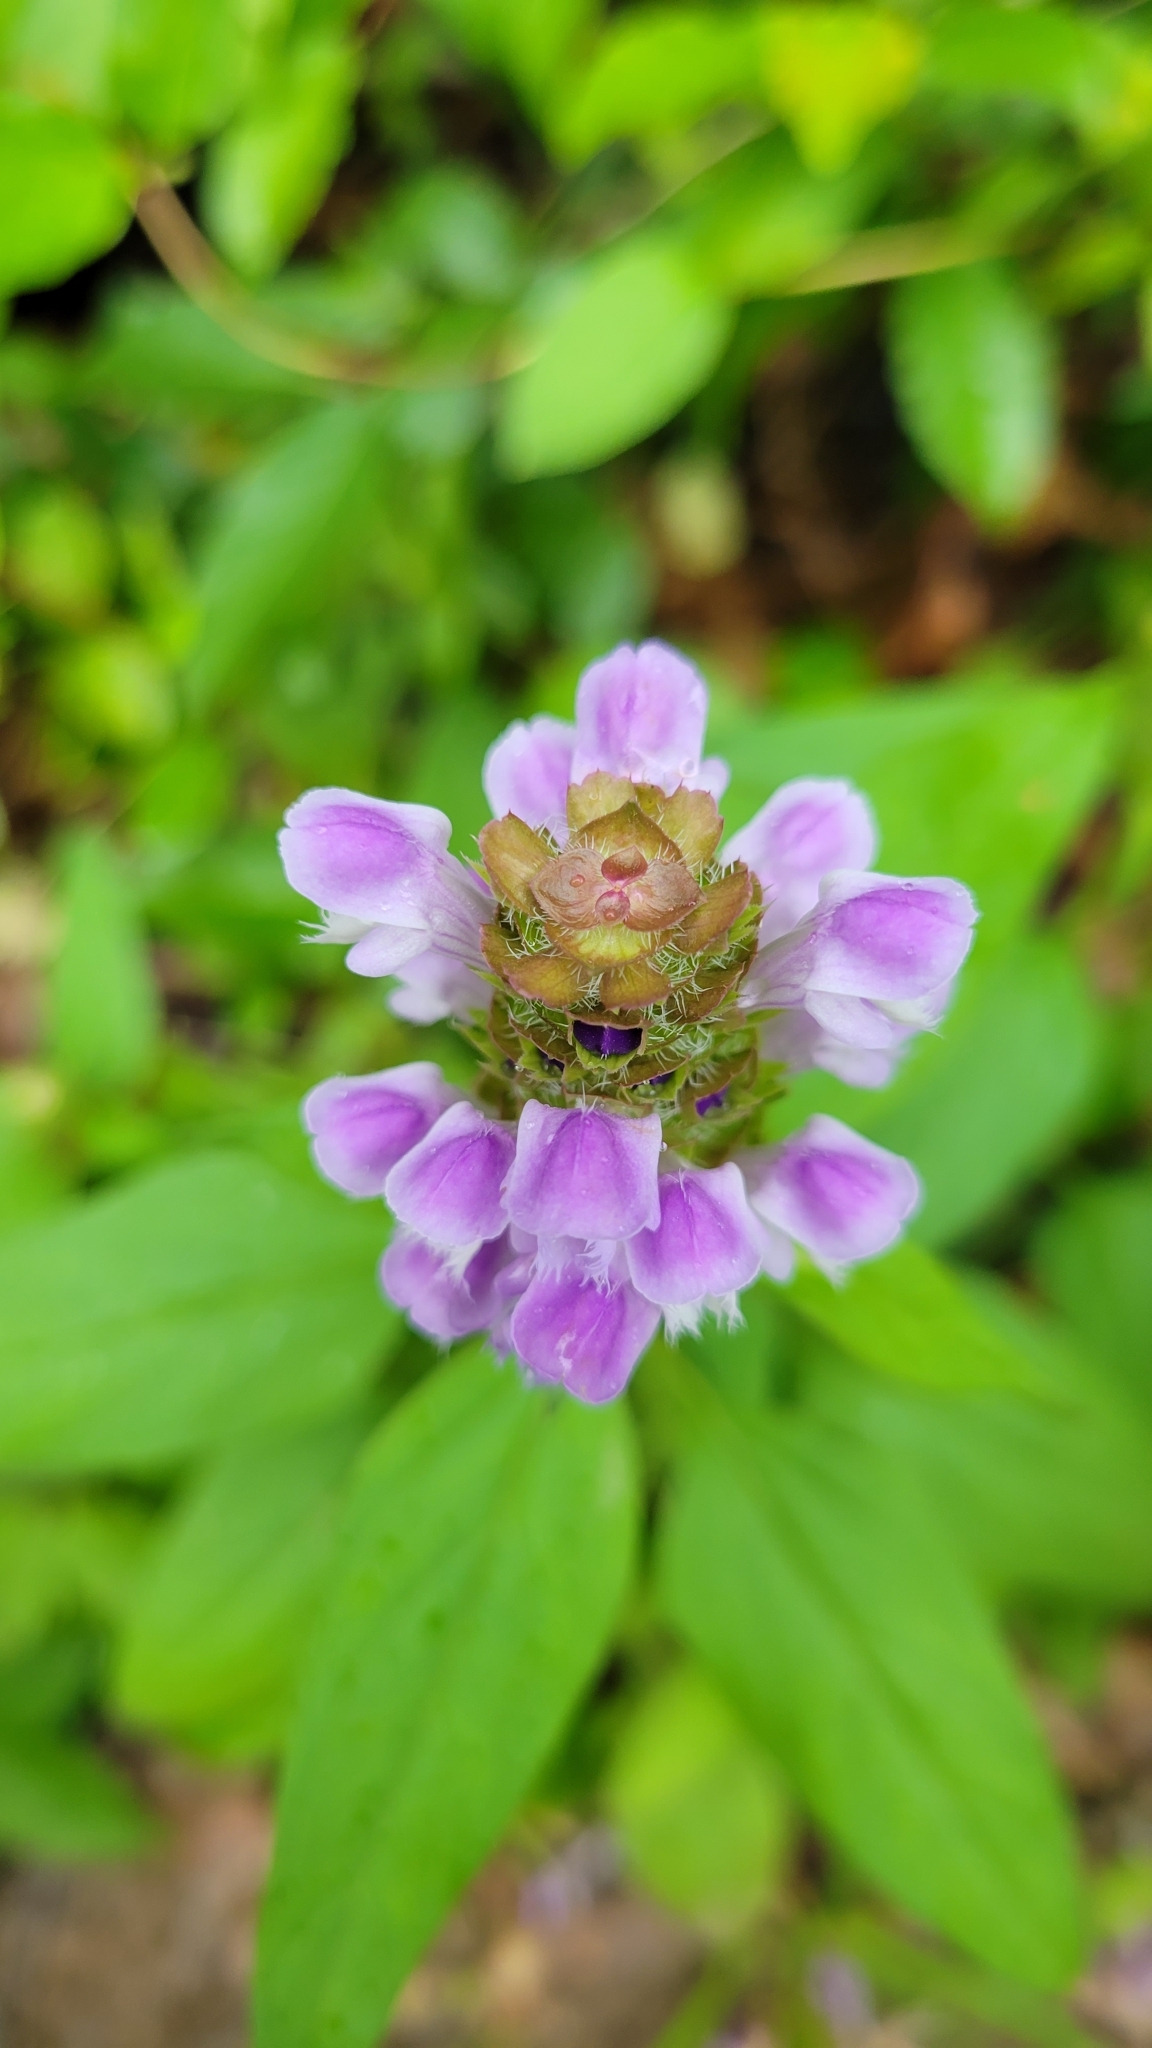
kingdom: Plantae
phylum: Tracheophyta
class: Magnoliopsida
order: Lamiales
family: Lamiaceae
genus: Prunella
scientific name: Prunella vulgaris
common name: Heal-all
